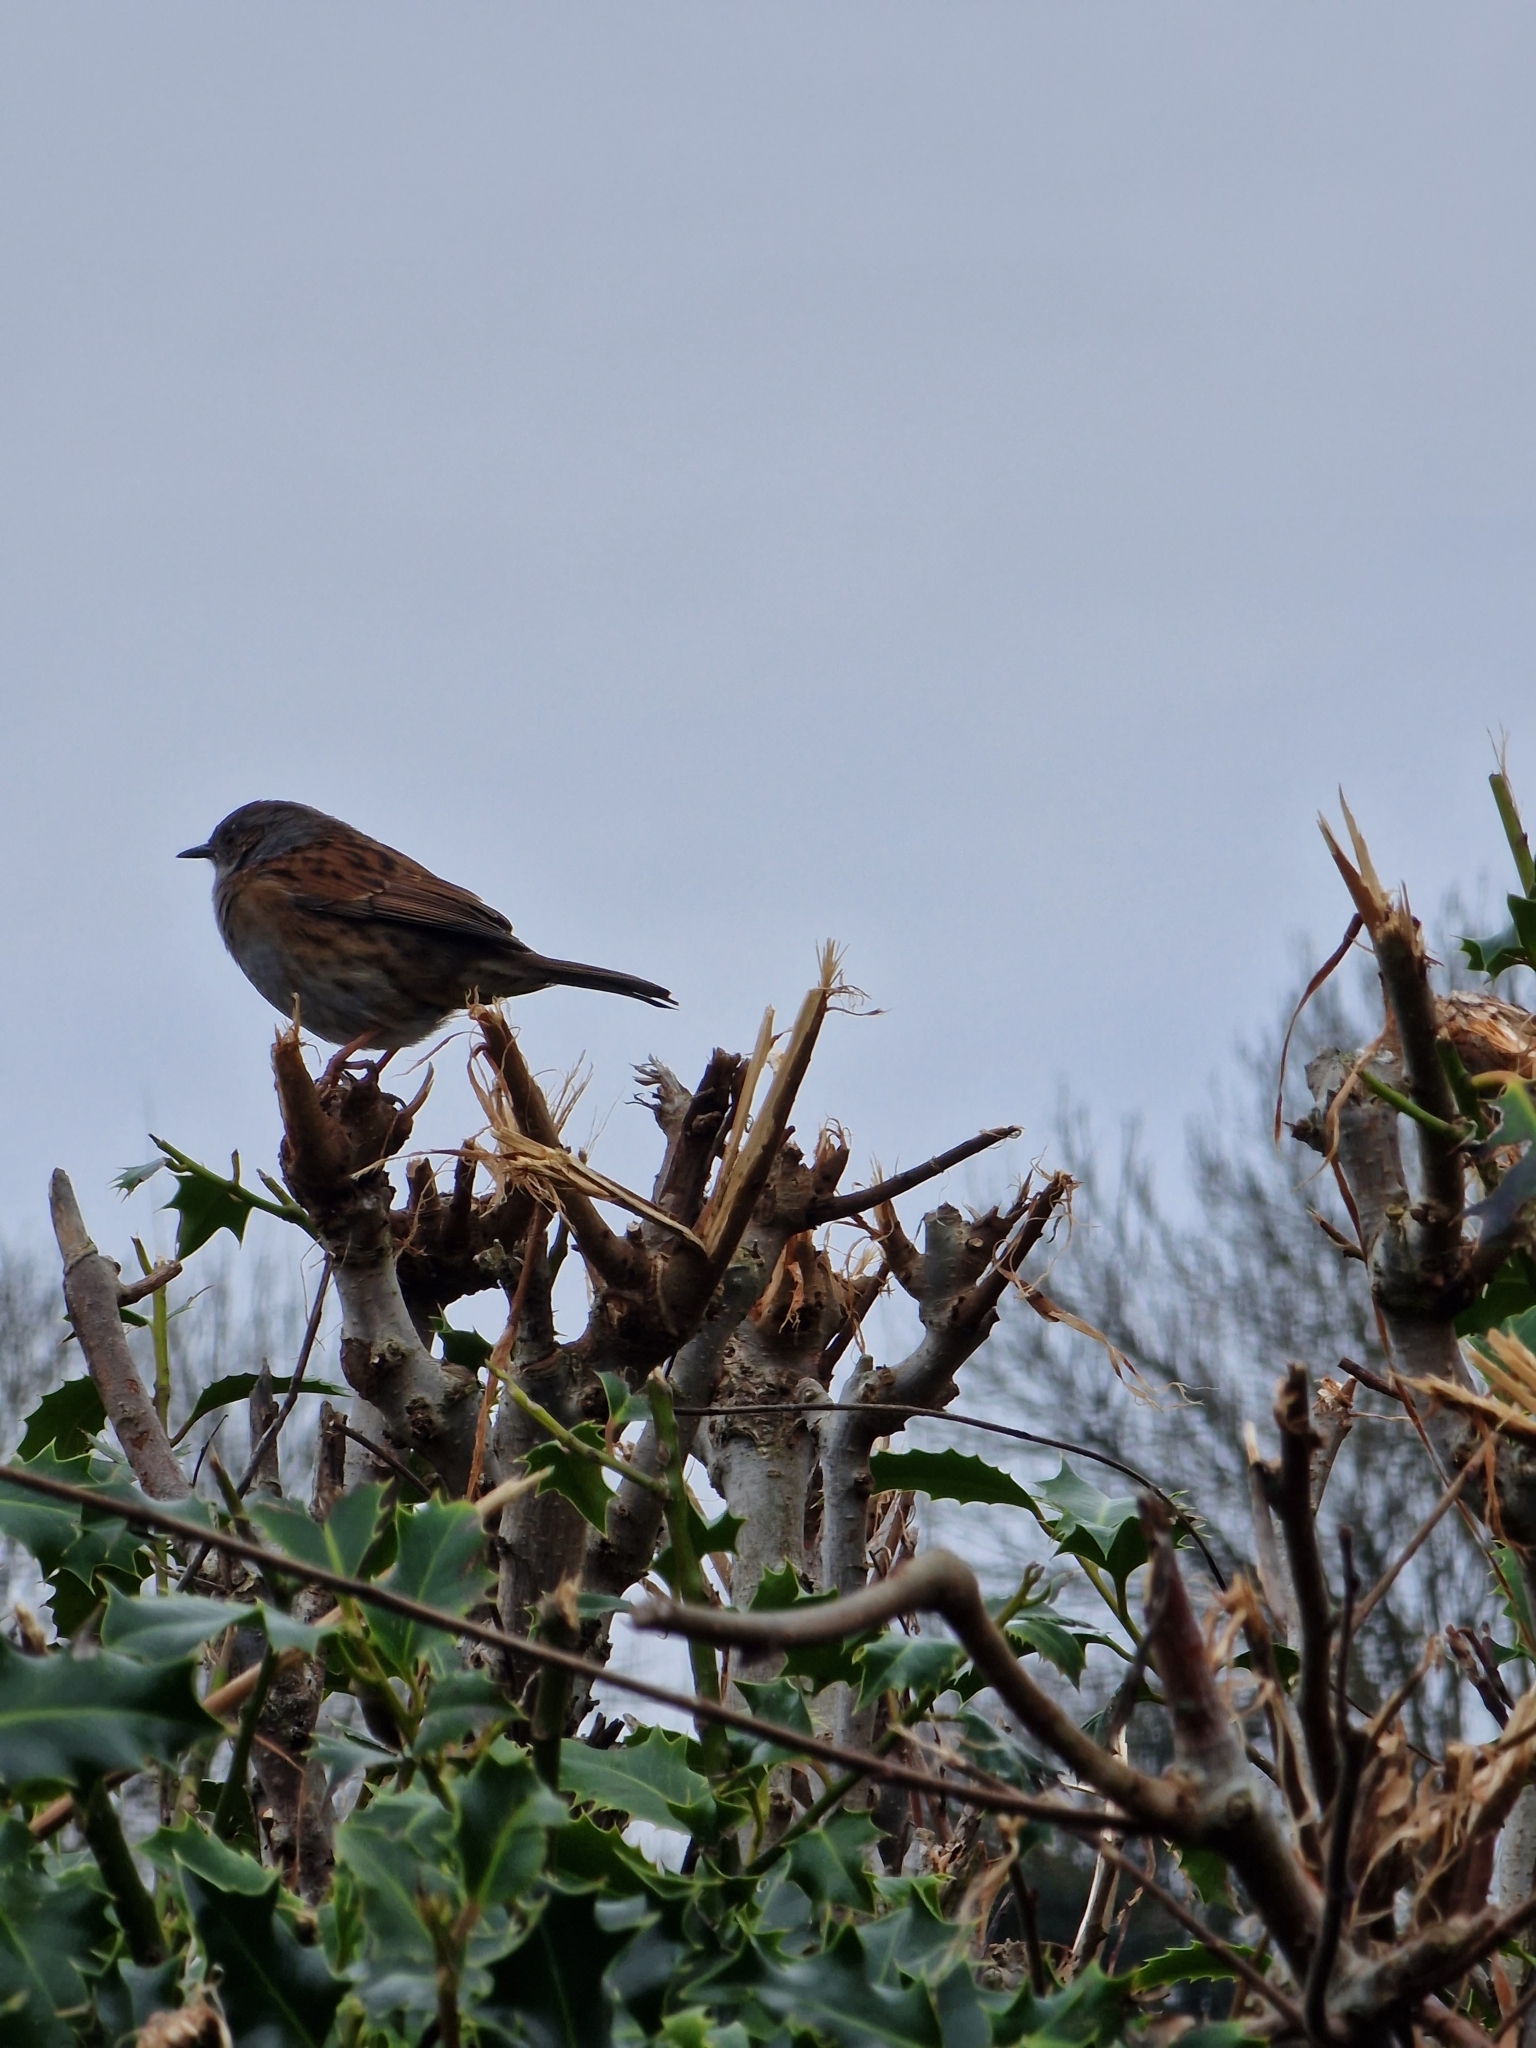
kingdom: Animalia
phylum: Chordata
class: Aves
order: Passeriformes
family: Prunellidae
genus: Prunella
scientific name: Prunella modularis
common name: Dunnock
